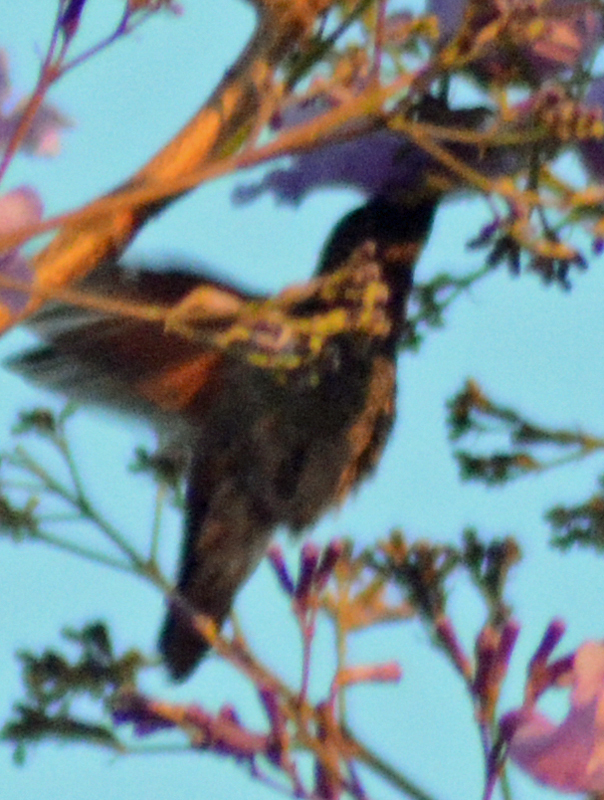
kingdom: Animalia
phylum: Chordata
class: Aves
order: Apodiformes
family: Trochilidae
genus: Saucerottia
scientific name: Saucerottia beryllina
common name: Berylline hummingbird
